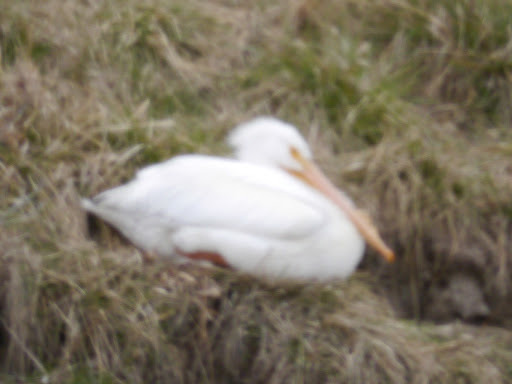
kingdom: Animalia
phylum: Chordata
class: Aves
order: Pelecaniformes
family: Pelecanidae
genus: Pelecanus
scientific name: Pelecanus erythrorhynchos
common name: American white pelican
